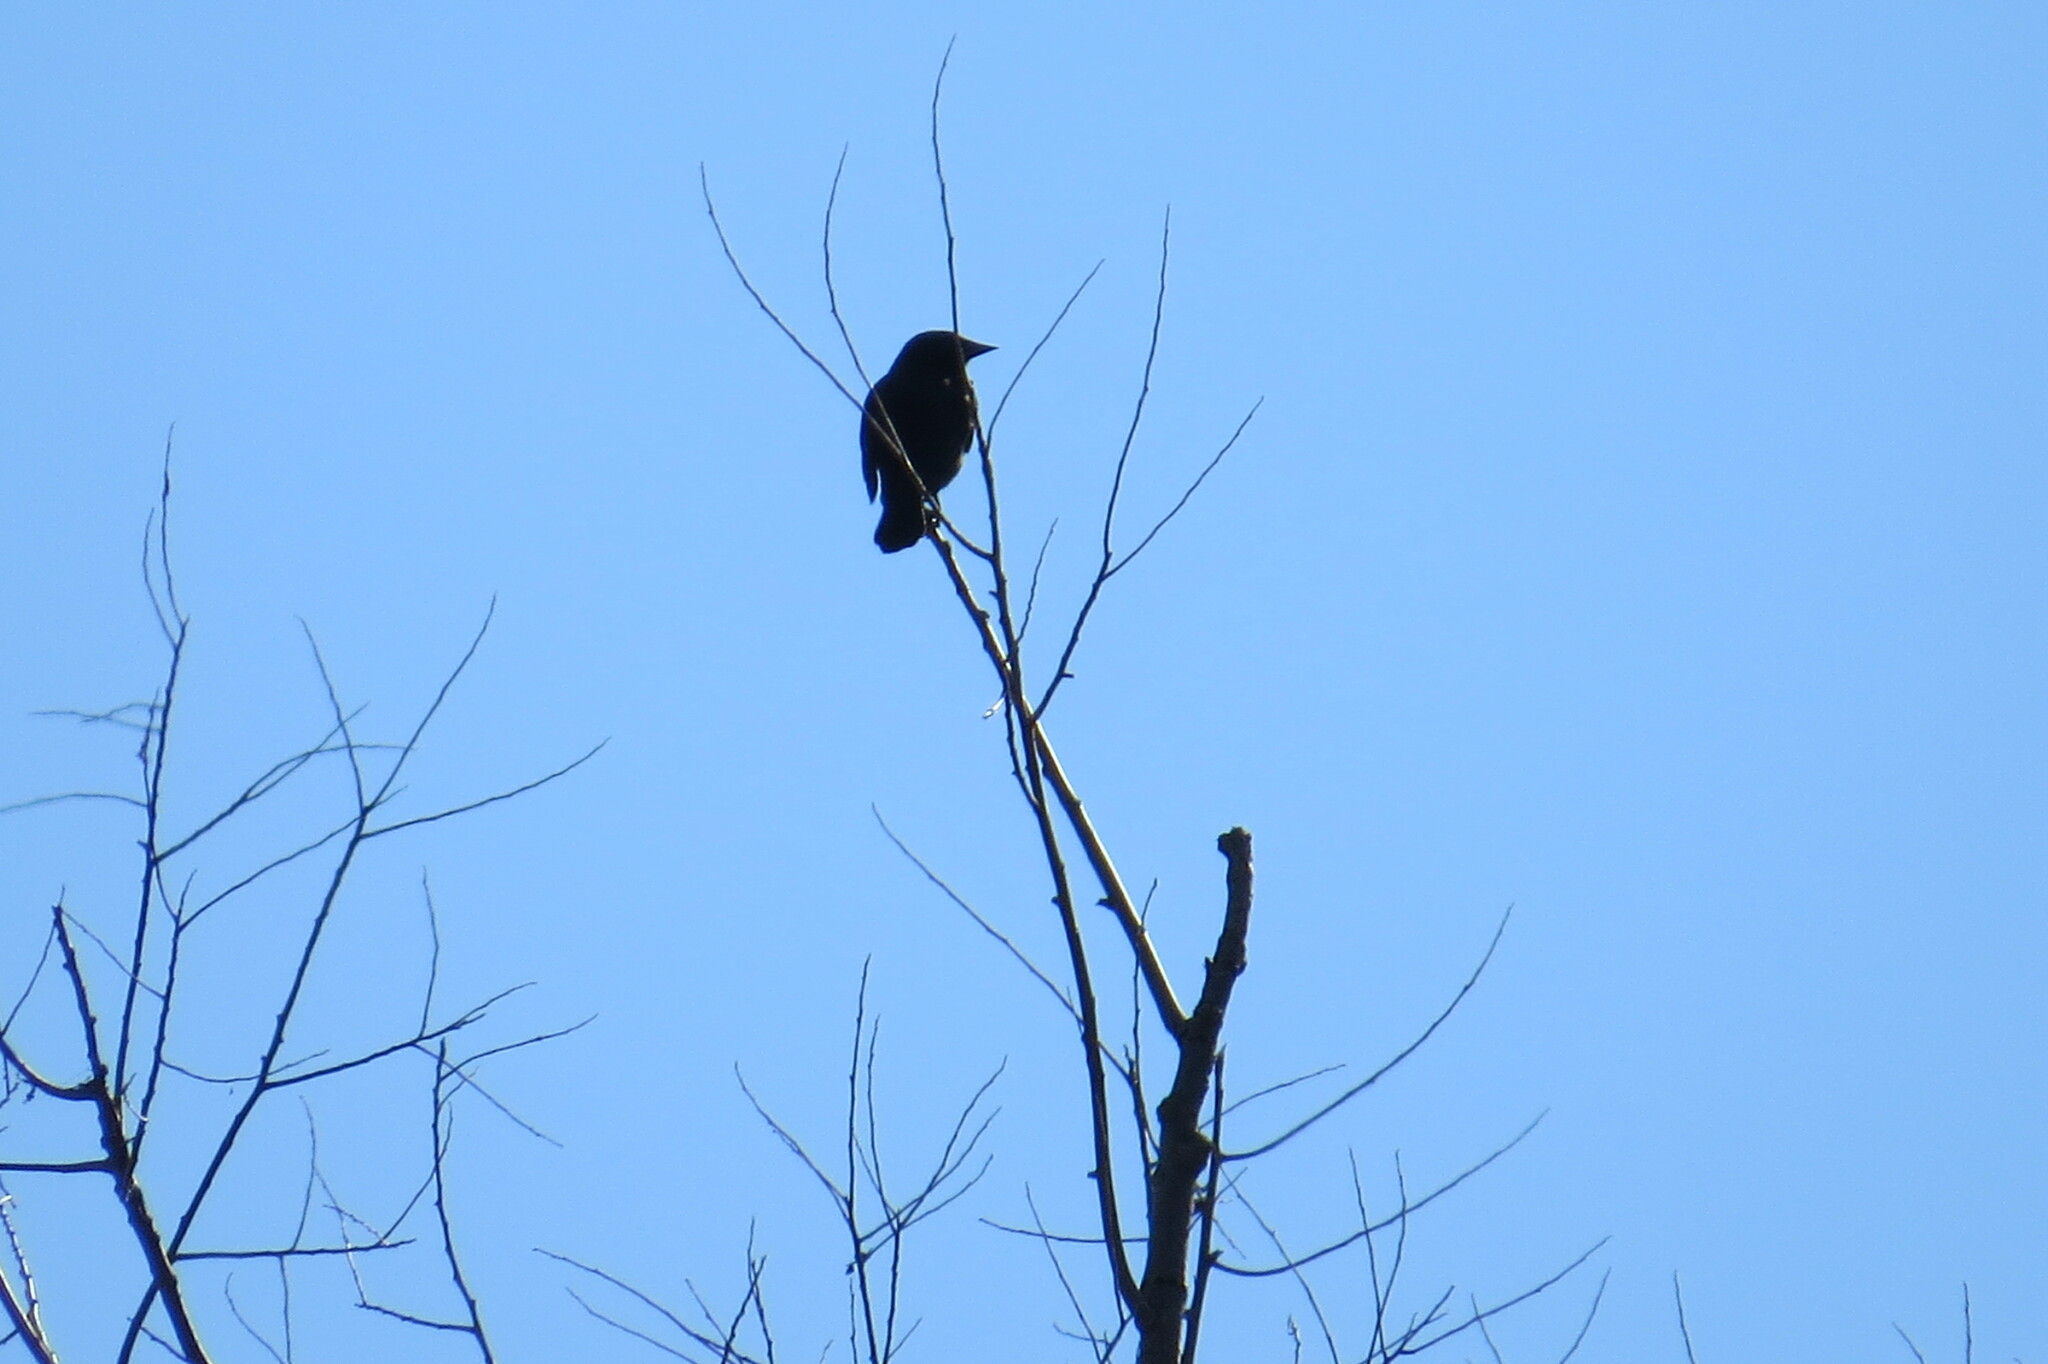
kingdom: Animalia
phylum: Chordata
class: Aves
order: Passeriformes
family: Icteridae
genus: Agelaius
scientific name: Agelaius phoeniceus
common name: Red-winged blackbird
